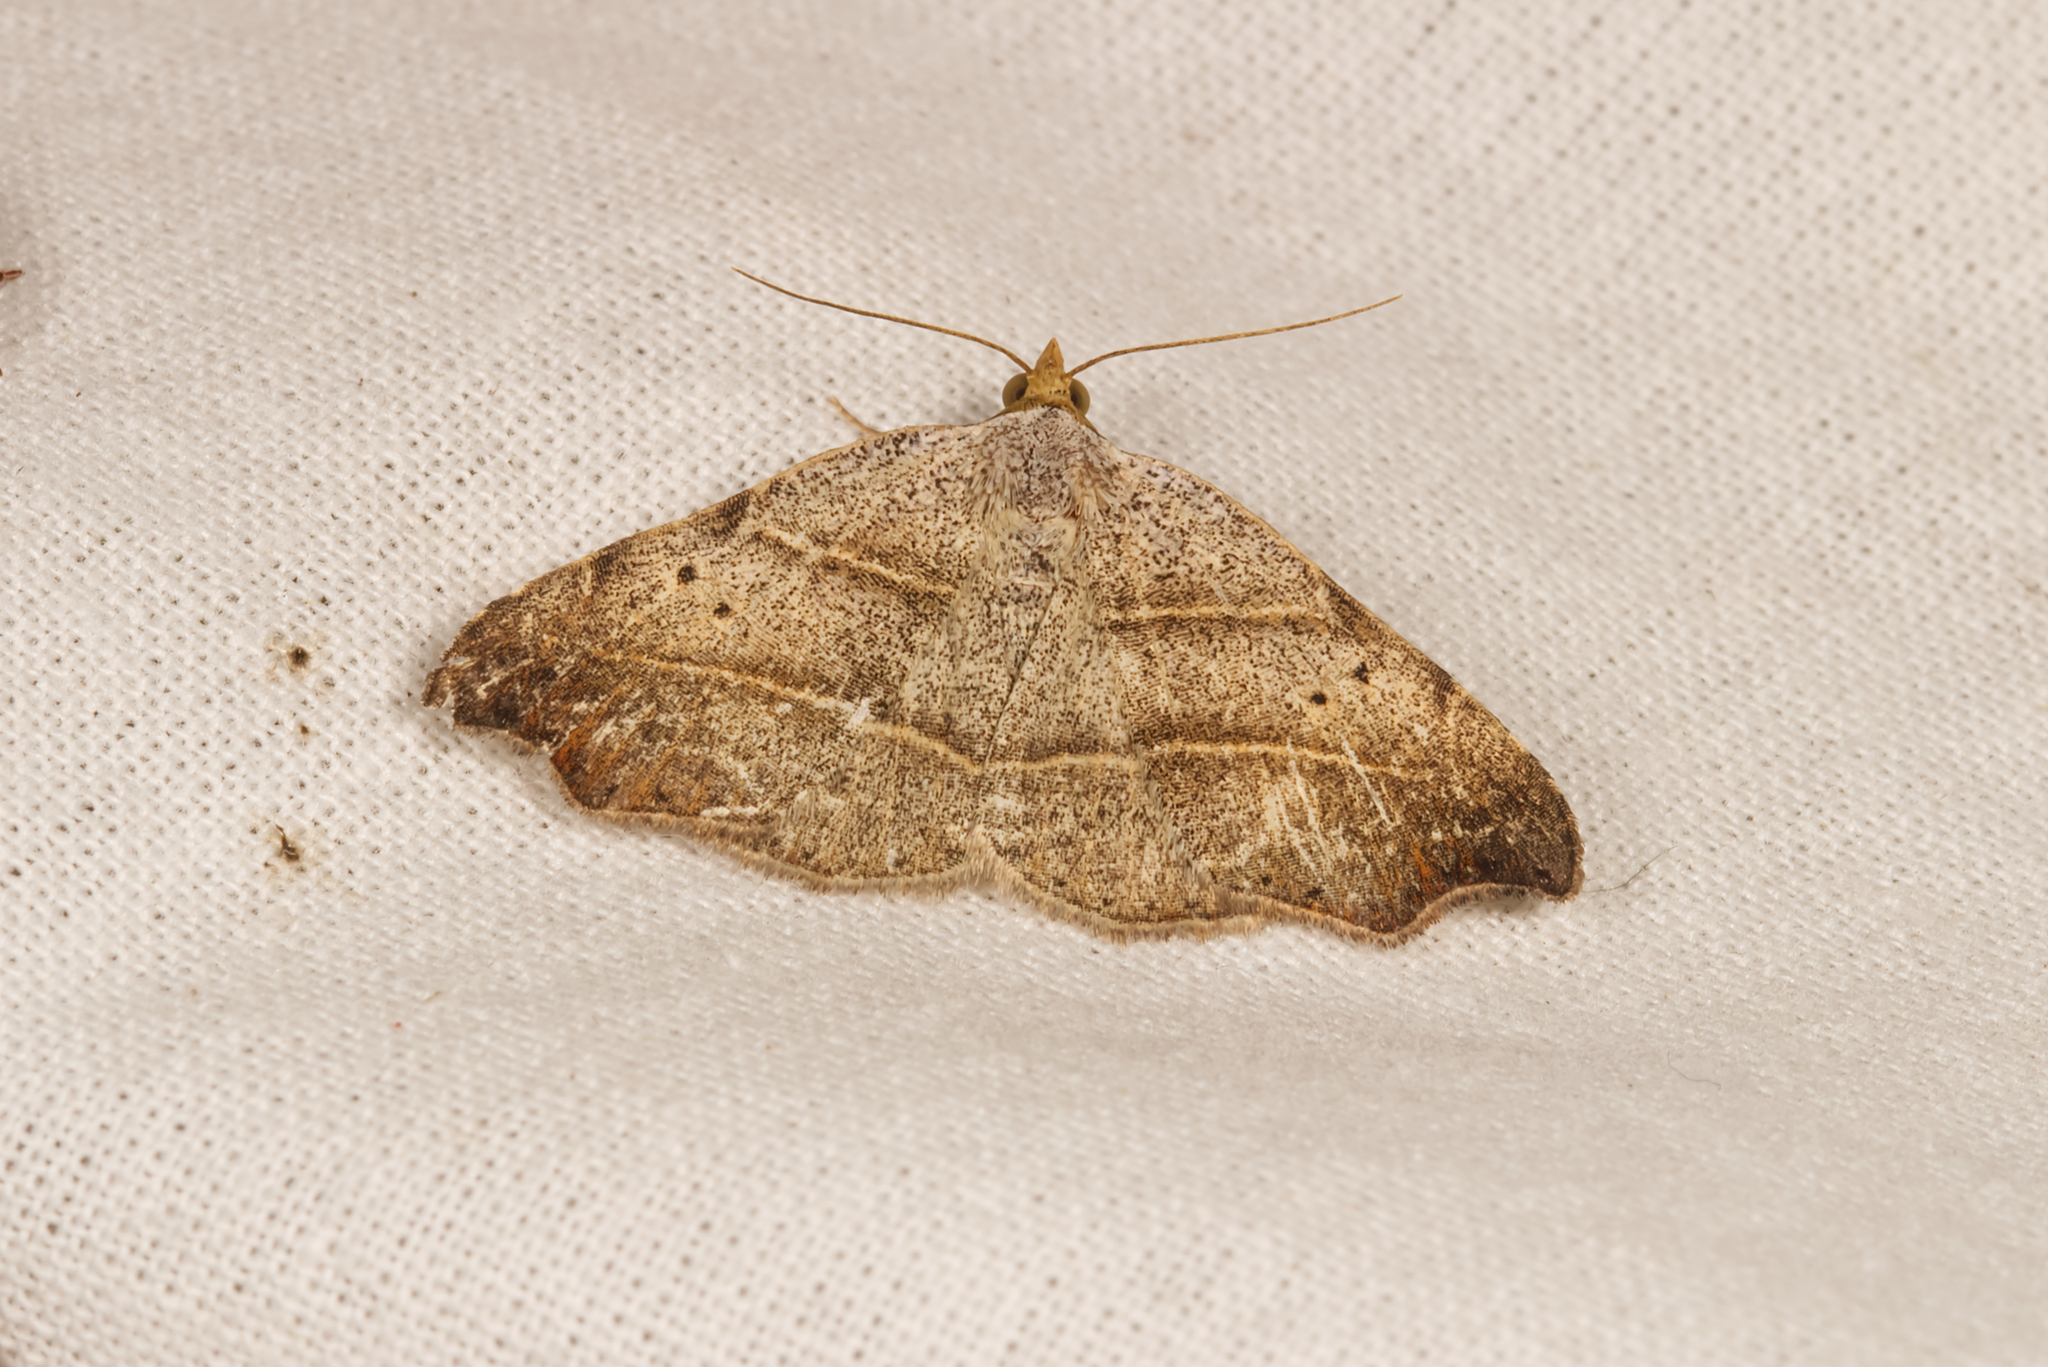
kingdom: Animalia
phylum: Arthropoda
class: Insecta
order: Lepidoptera
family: Erebidae
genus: Laspeyria
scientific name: Laspeyria flexula
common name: Beautiful hook-tip
